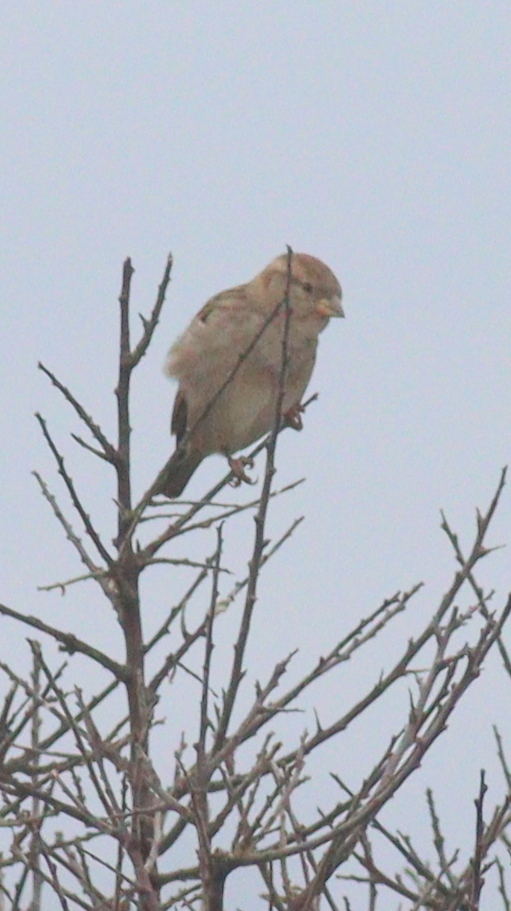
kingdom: Animalia
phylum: Chordata
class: Aves
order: Passeriformes
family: Passeridae
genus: Passer
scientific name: Passer domesticus
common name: House sparrow
